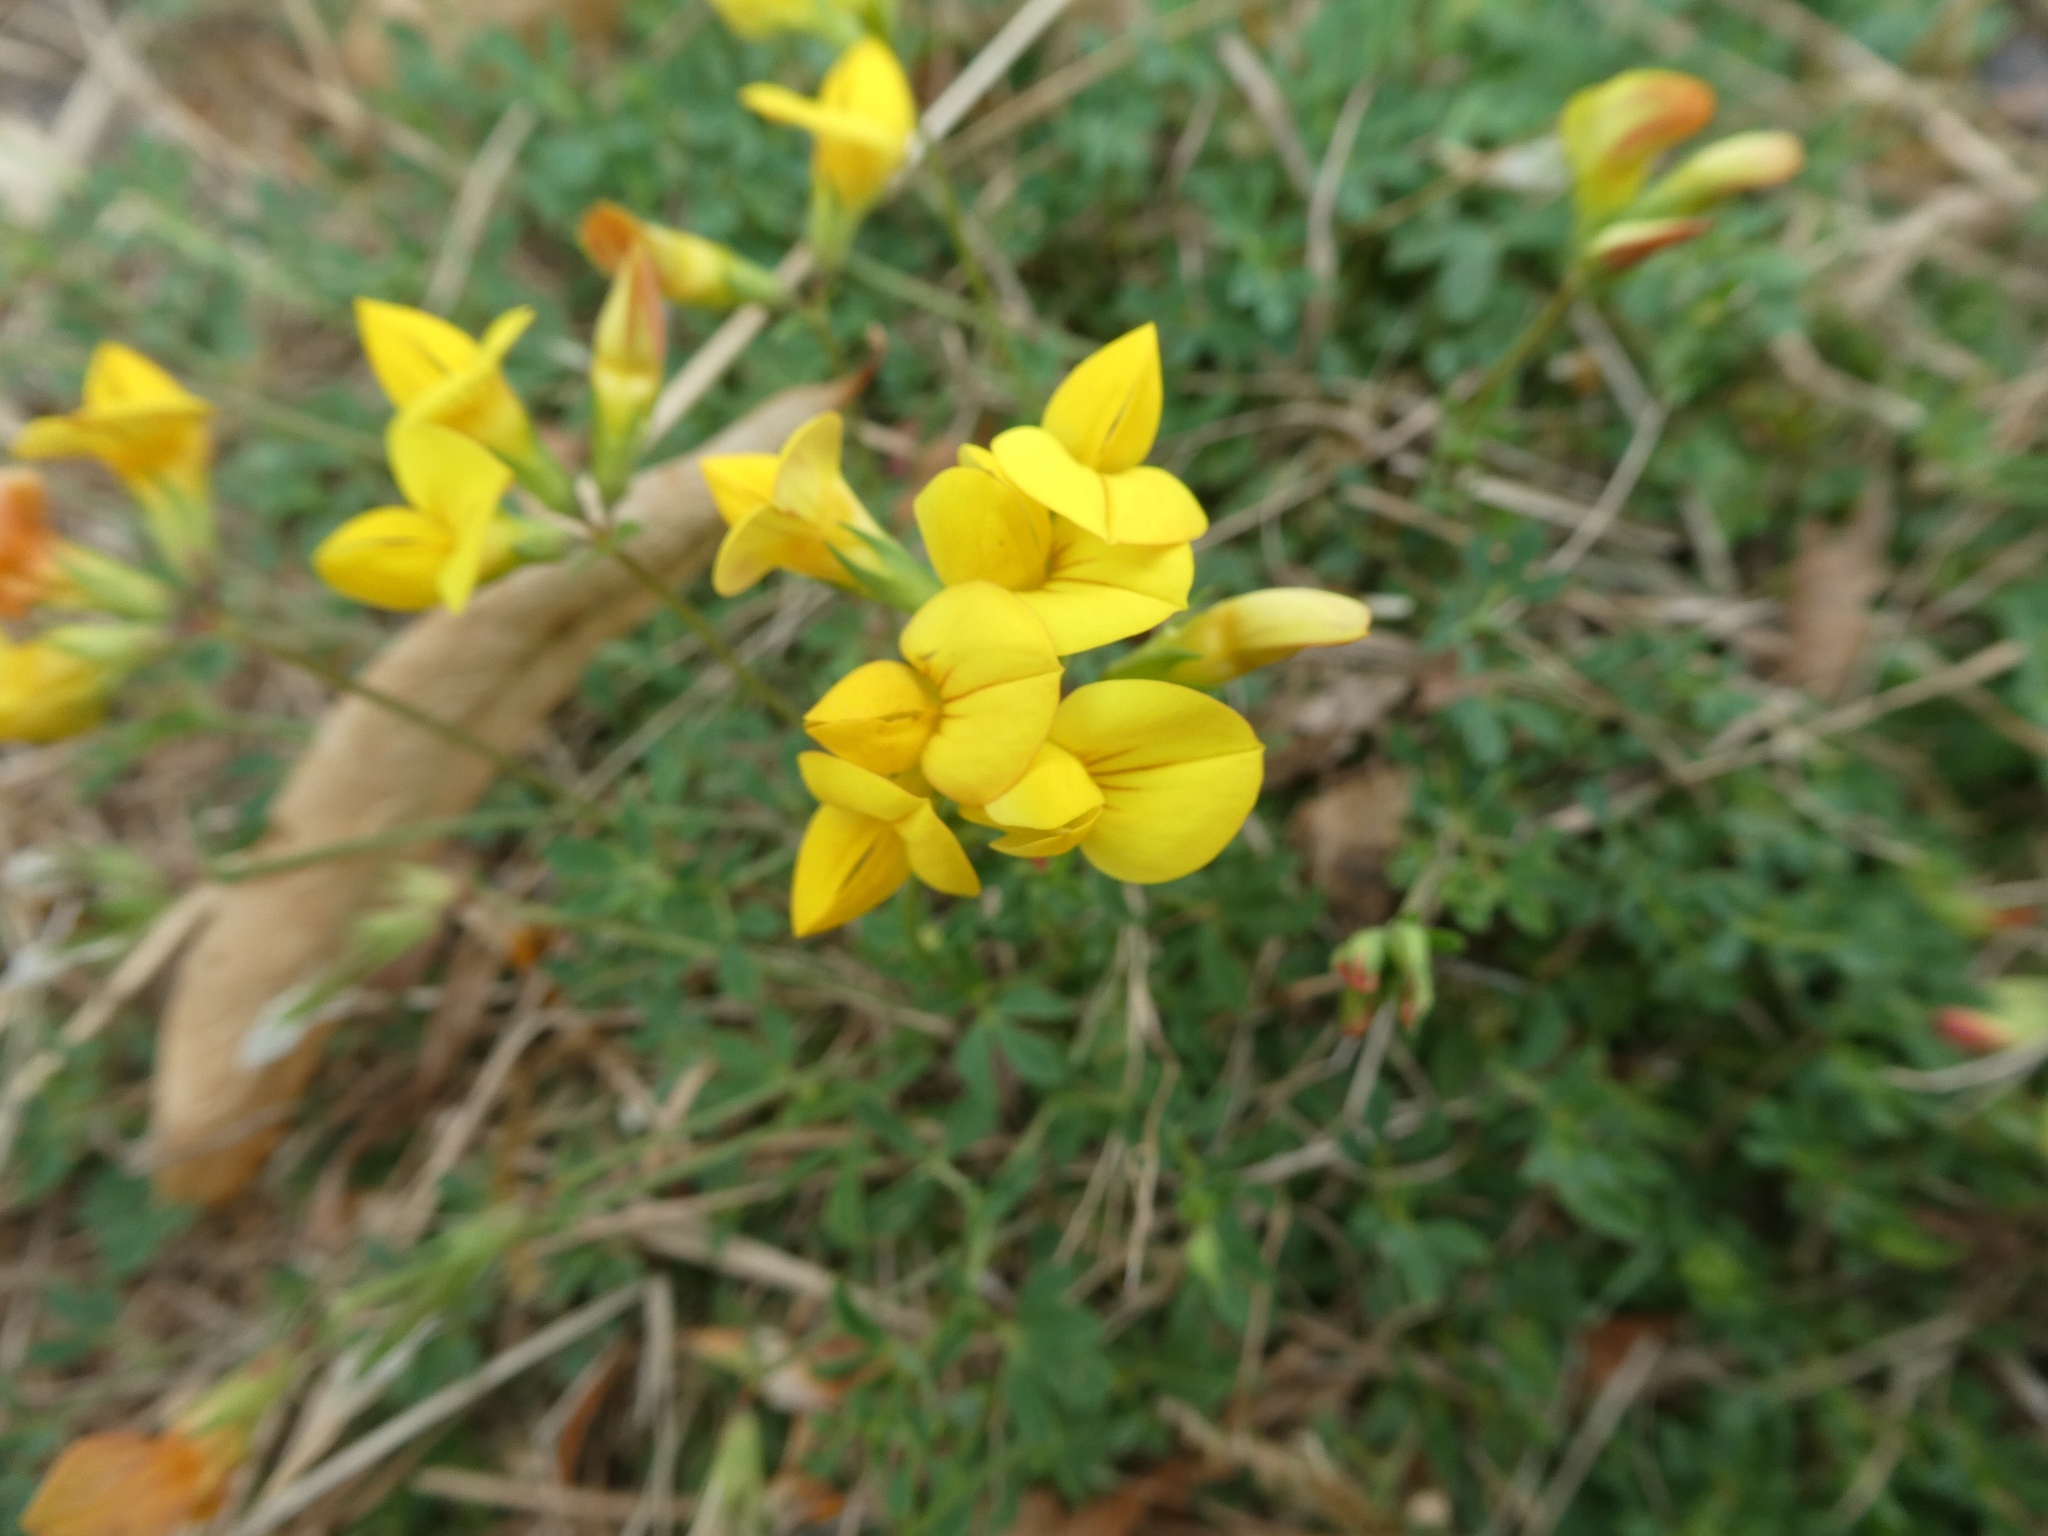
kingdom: Plantae
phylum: Tracheophyta
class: Magnoliopsida
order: Fabales
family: Fabaceae
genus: Lotus
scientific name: Lotus corniculatus
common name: Common bird's-foot-trefoil
